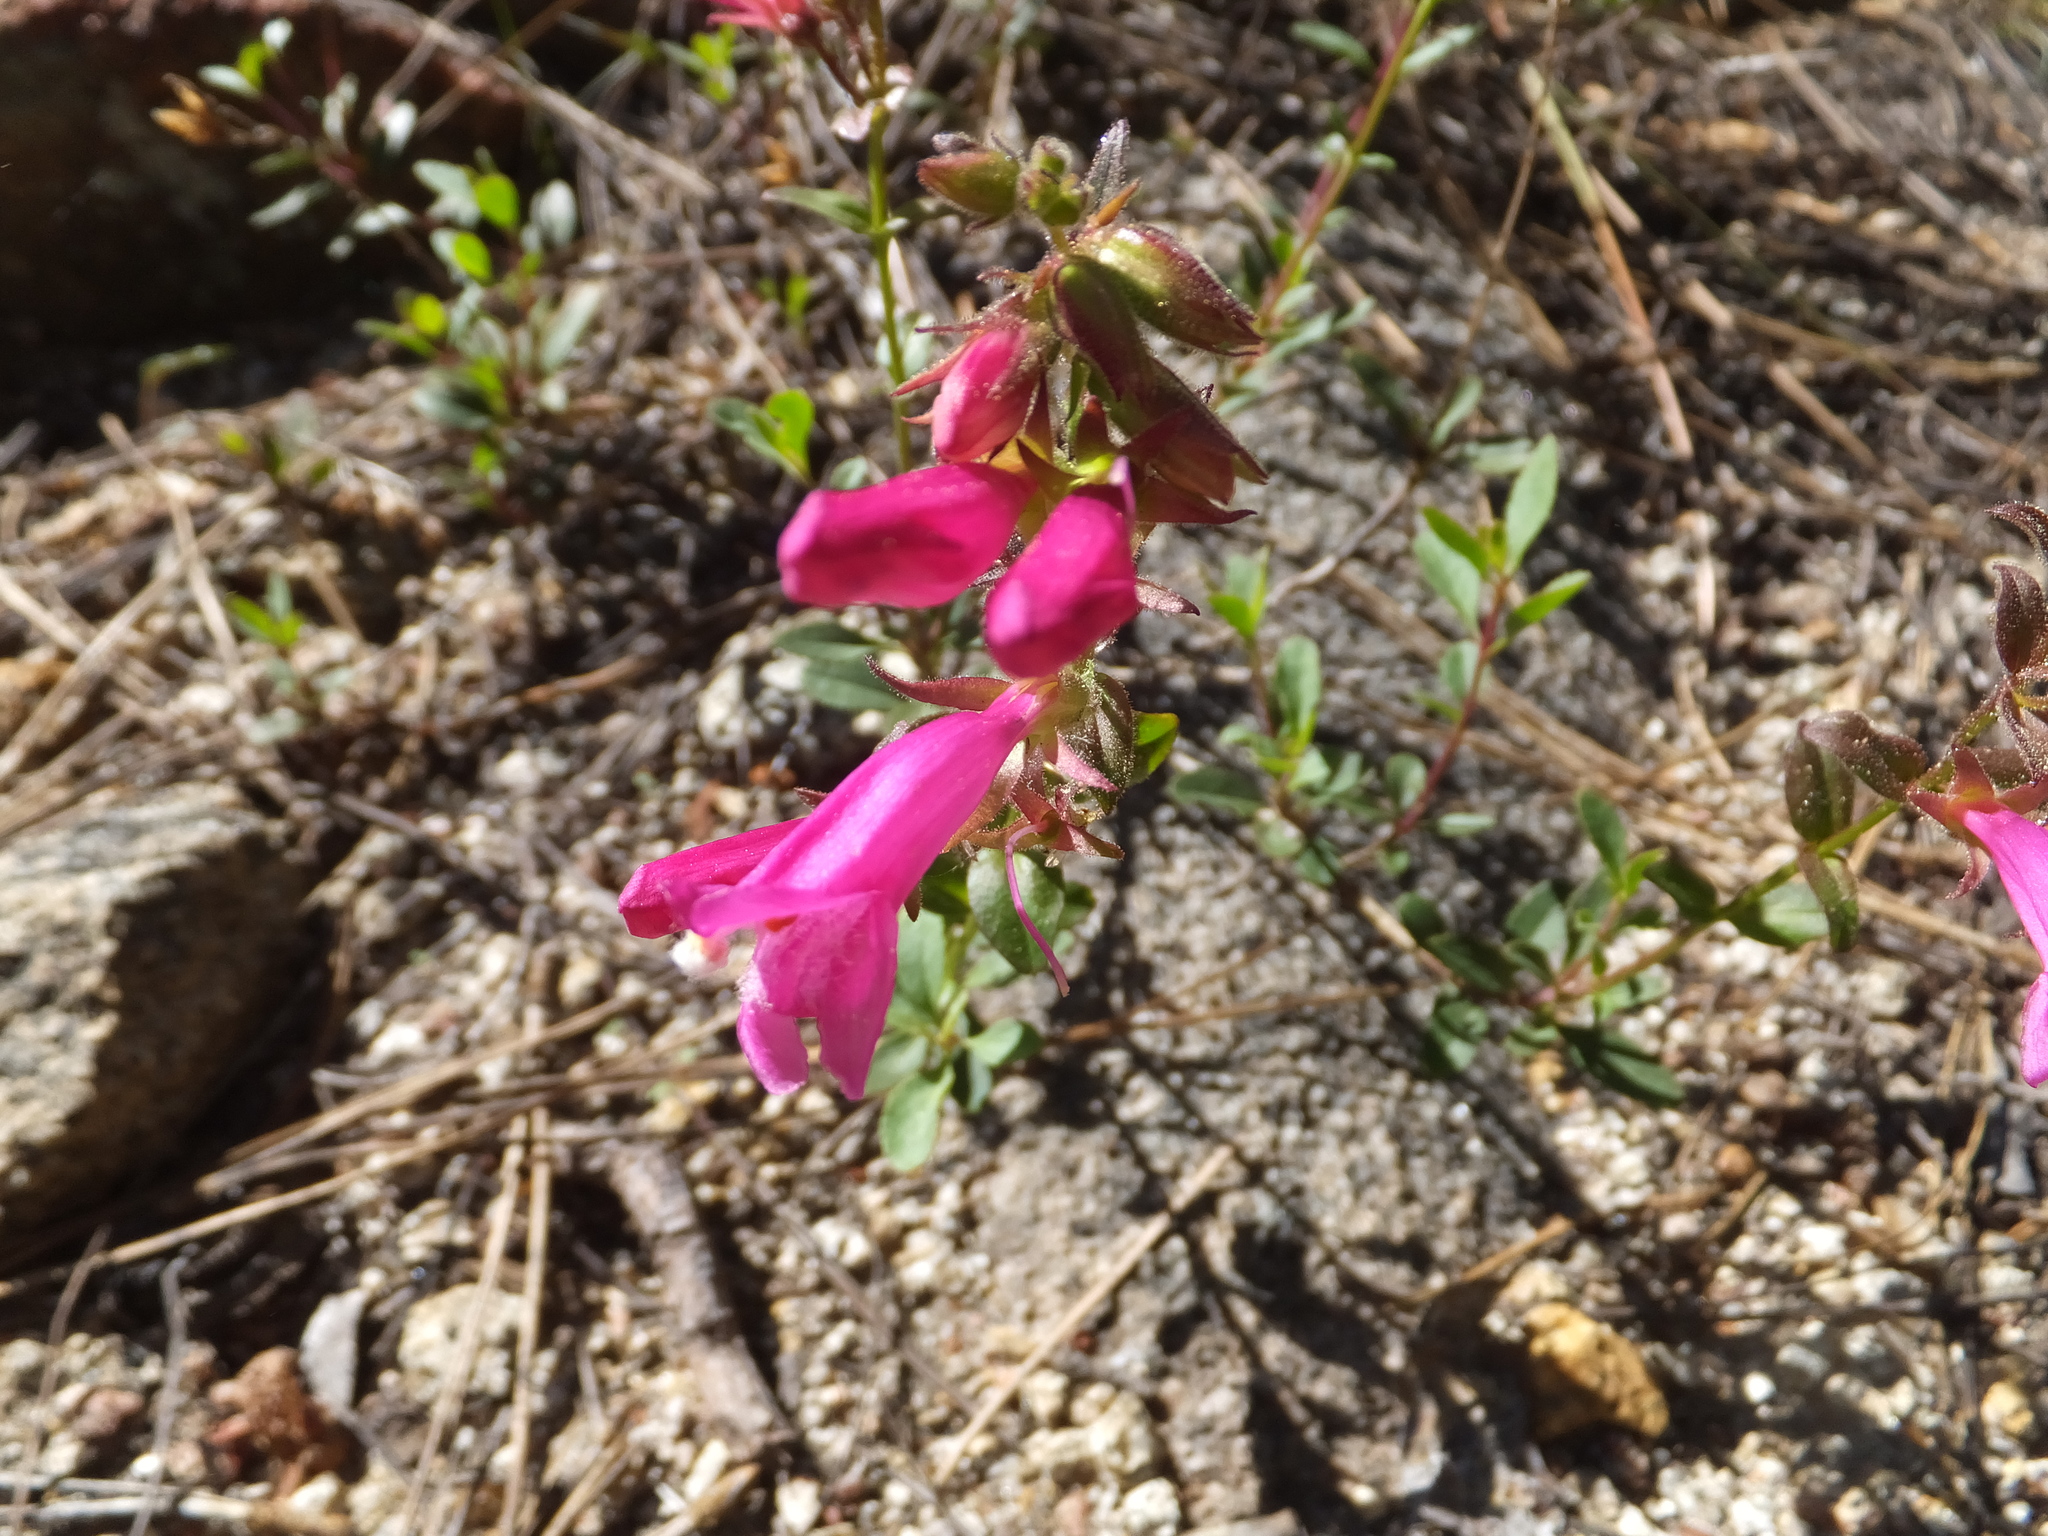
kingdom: Plantae
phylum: Tracheophyta
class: Magnoliopsida
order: Lamiales
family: Plantaginaceae
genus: Penstemon
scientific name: Penstemon newberryi
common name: Mountain-pride
